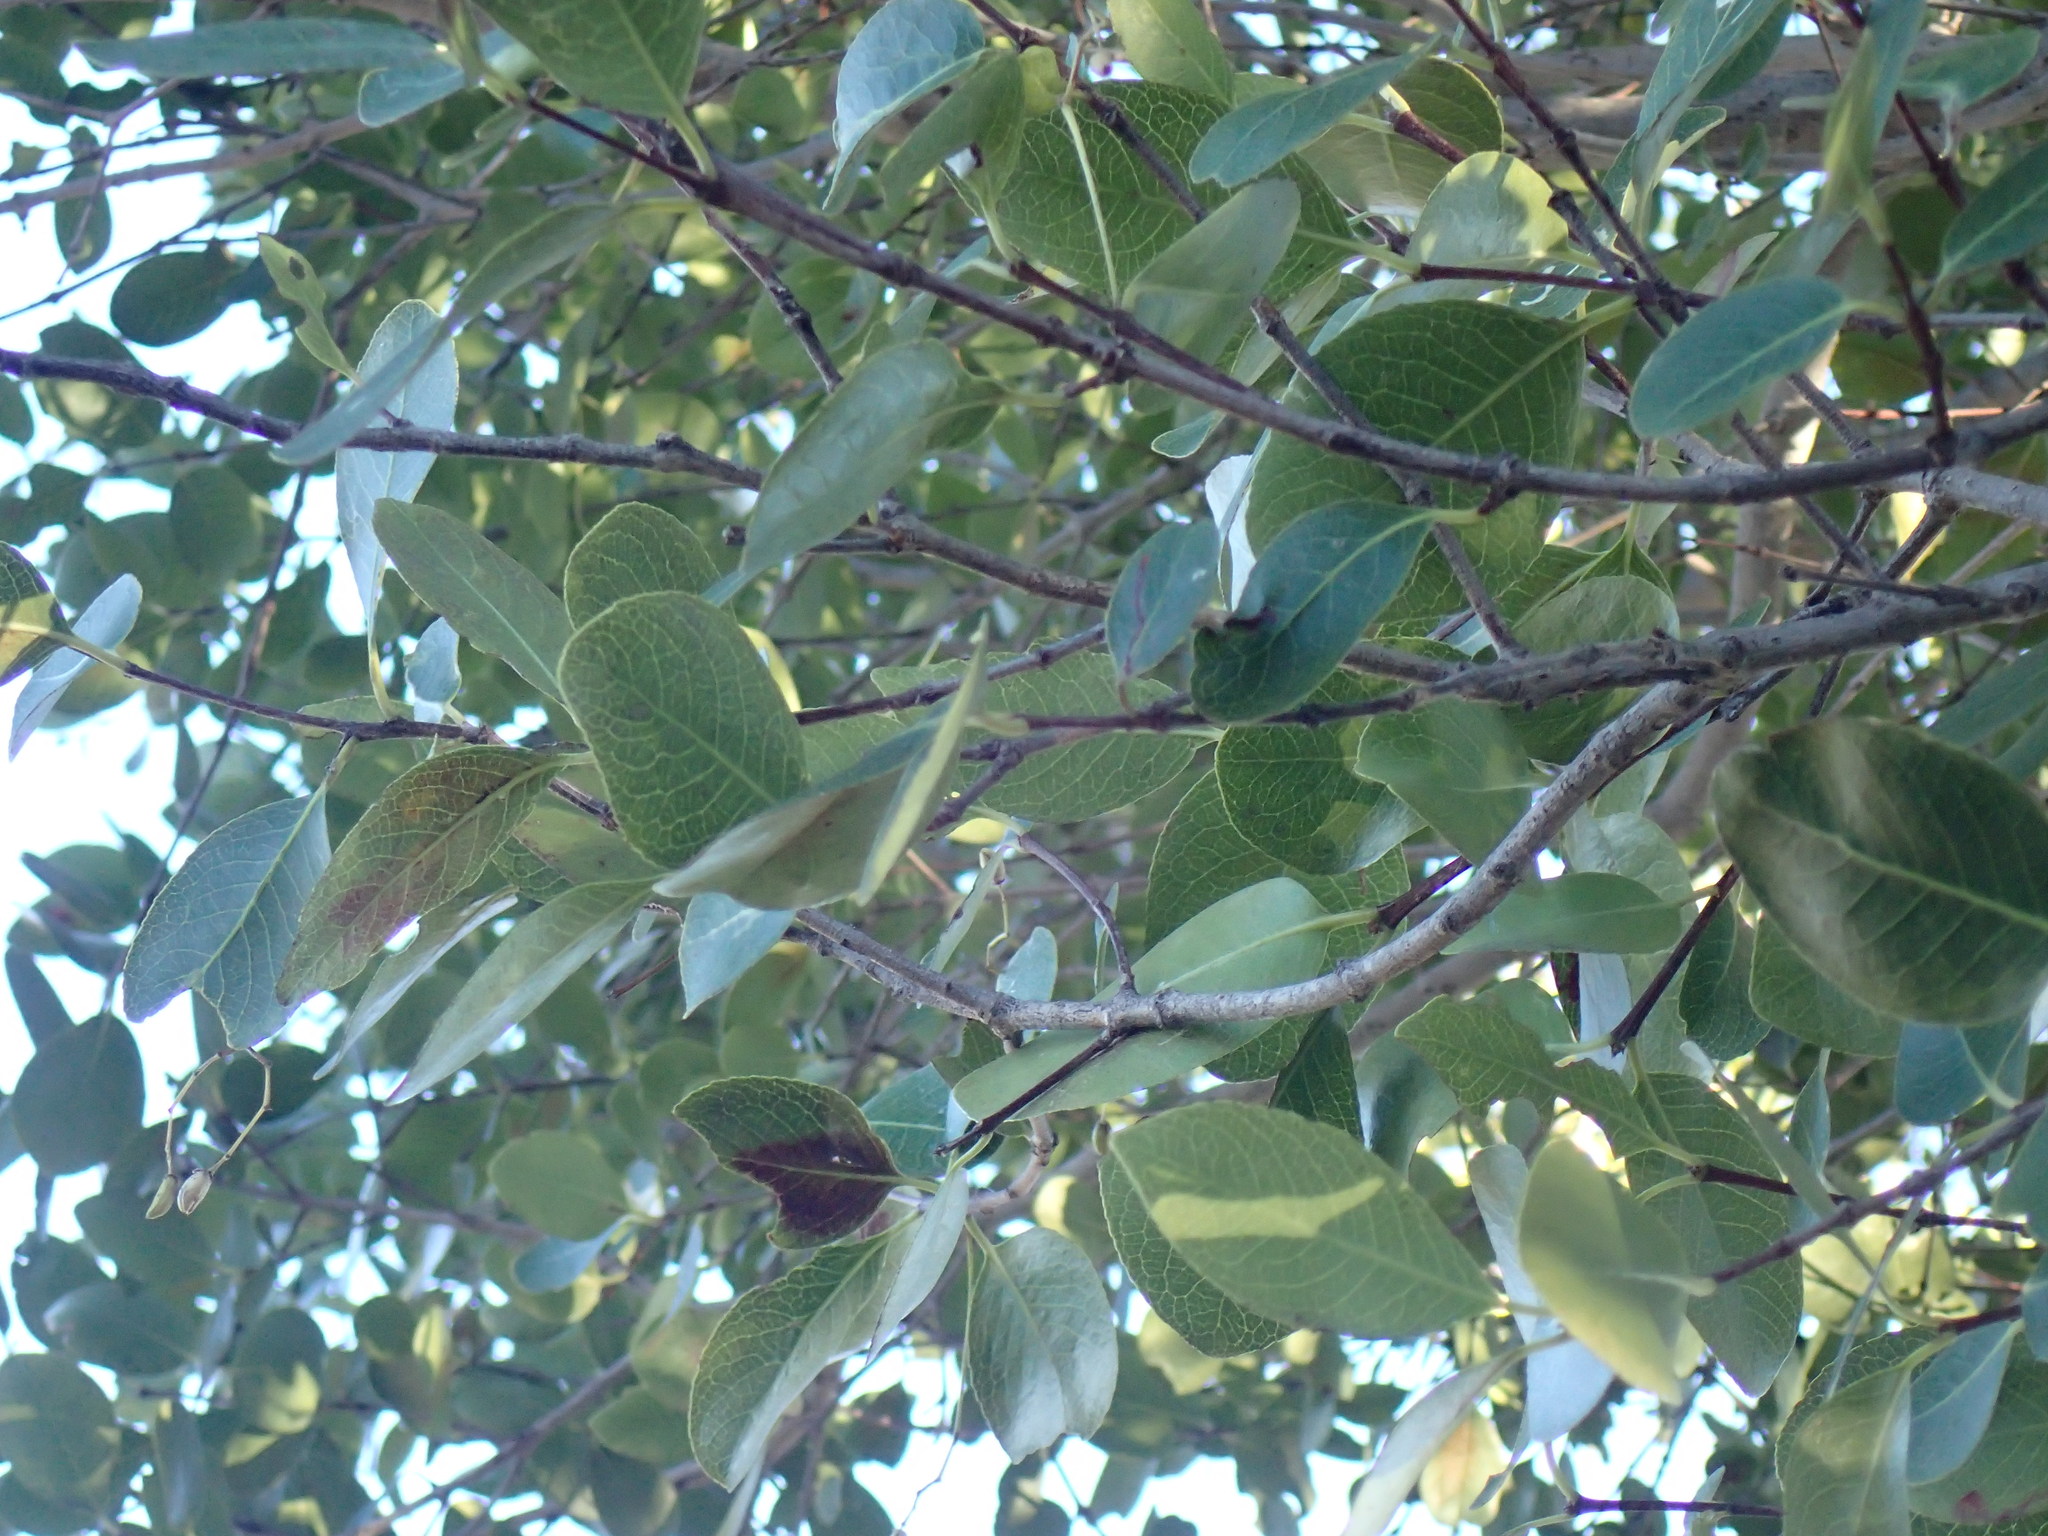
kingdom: Plantae
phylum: Tracheophyta
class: Magnoliopsida
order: Celastrales
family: Celastraceae
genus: Lydenburgia
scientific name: Lydenburgia cassinoides
